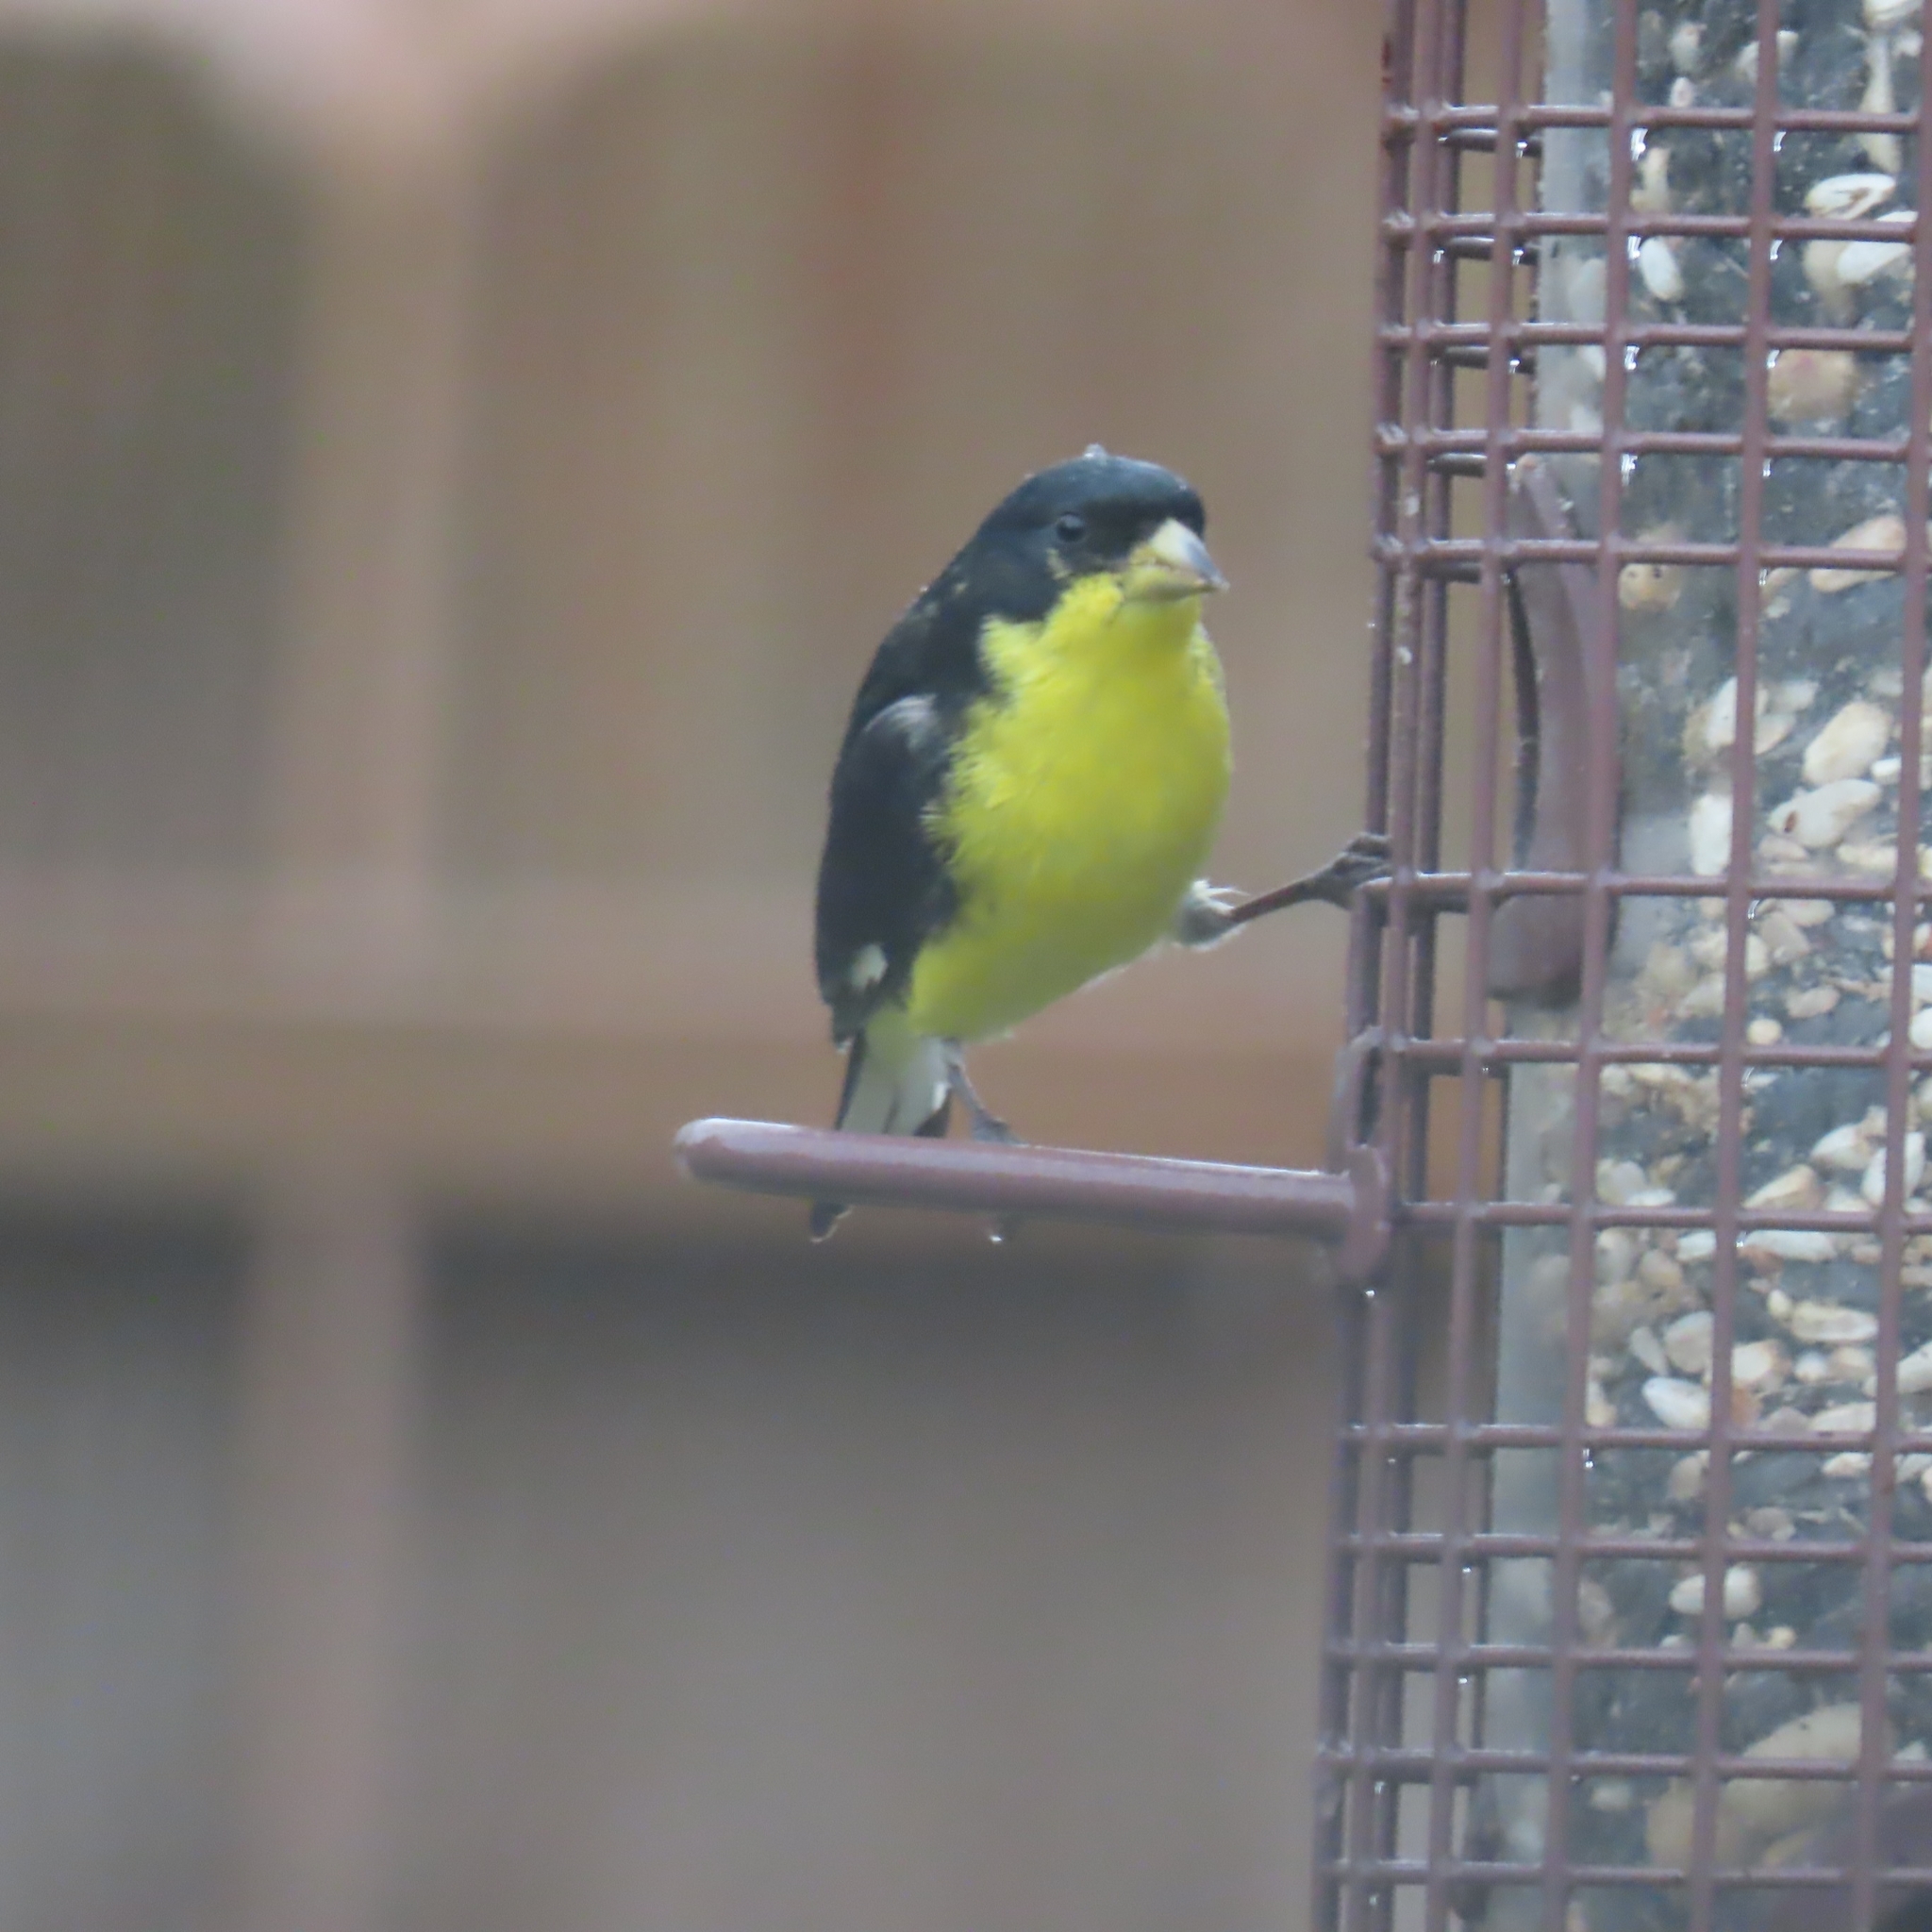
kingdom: Animalia
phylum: Chordata
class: Aves
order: Passeriformes
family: Fringillidae
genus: Spinus
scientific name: Spinus psaltria
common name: Lesser goldfinch
